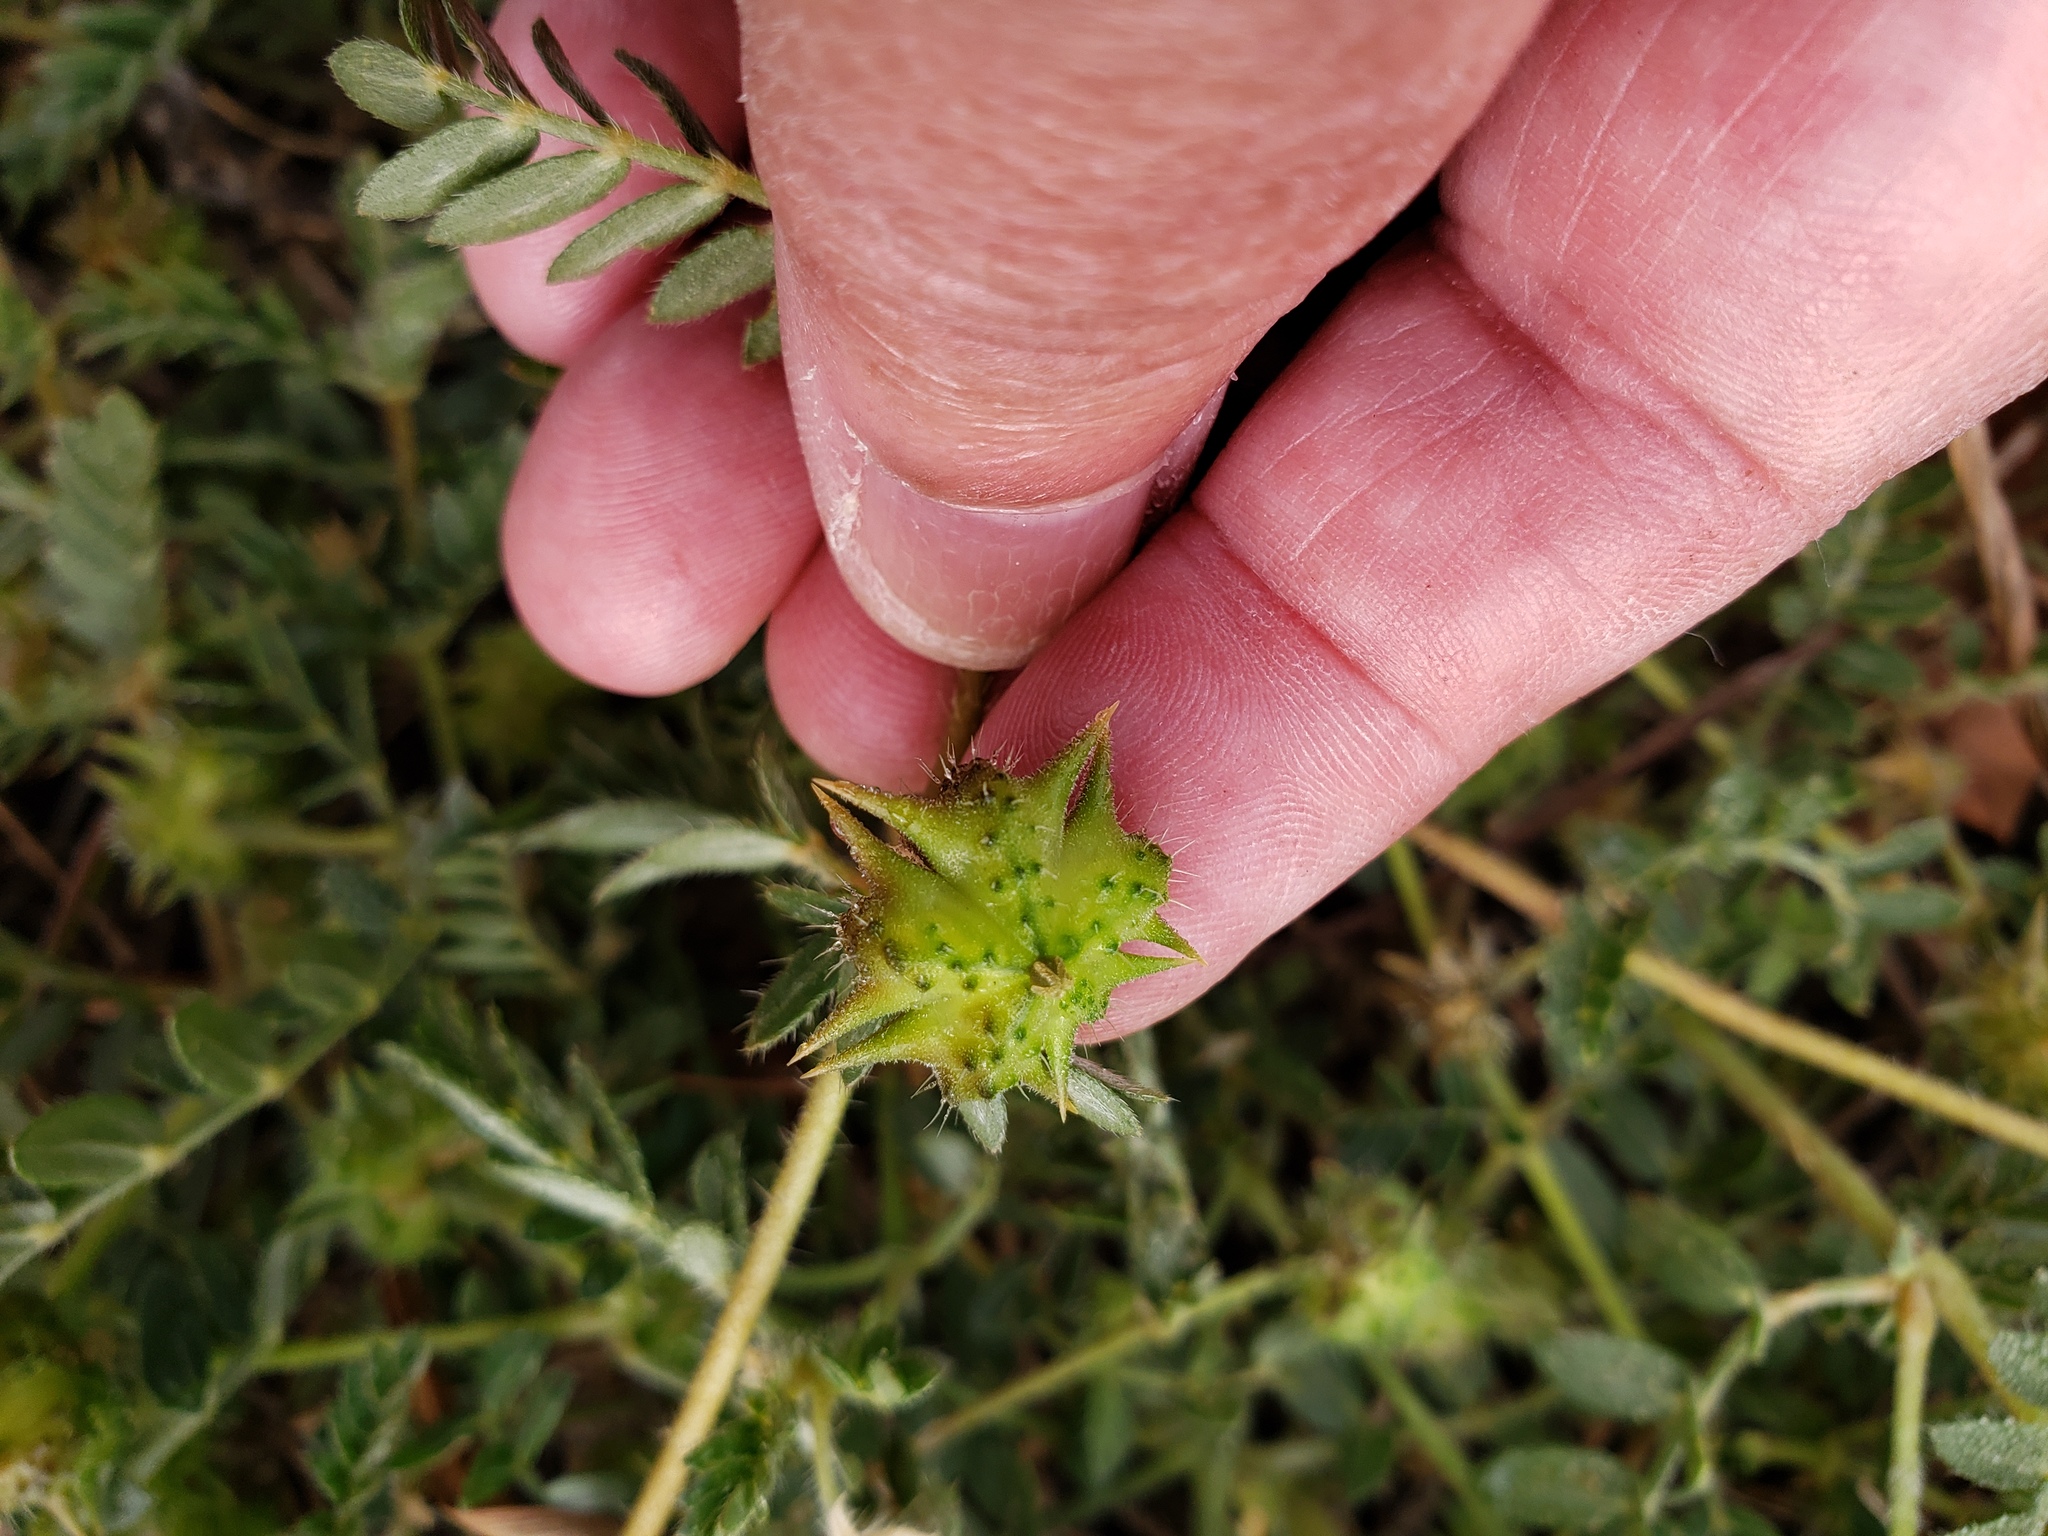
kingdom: Plantae
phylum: Tracheophyta
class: Magnoliopsida
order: Zygophyllales
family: Zygophyllaceae
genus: Tribulus
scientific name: Tribulus terrestris
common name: Puncturevine
